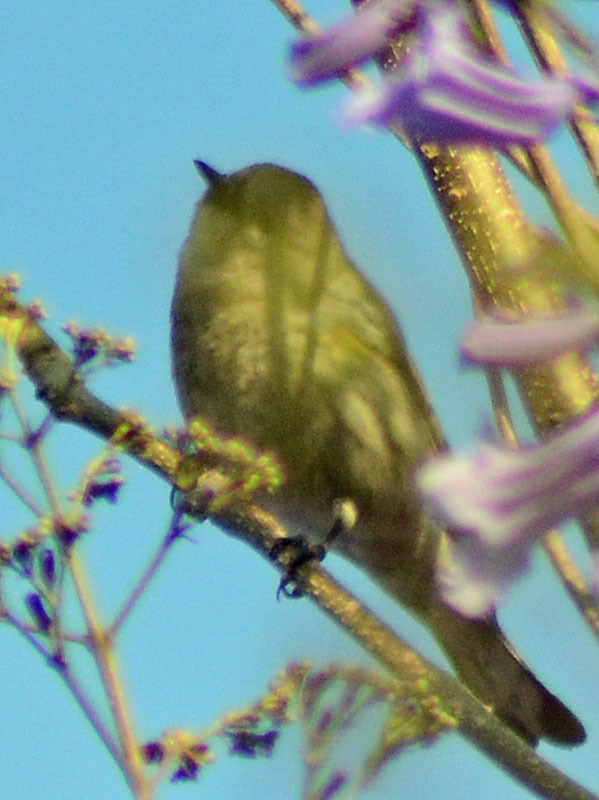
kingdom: Animalia
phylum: Chordata
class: Aves
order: Passeriformes
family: Parulidae
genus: Setophaga
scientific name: Setophaga coronata
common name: Myrtle warbler
